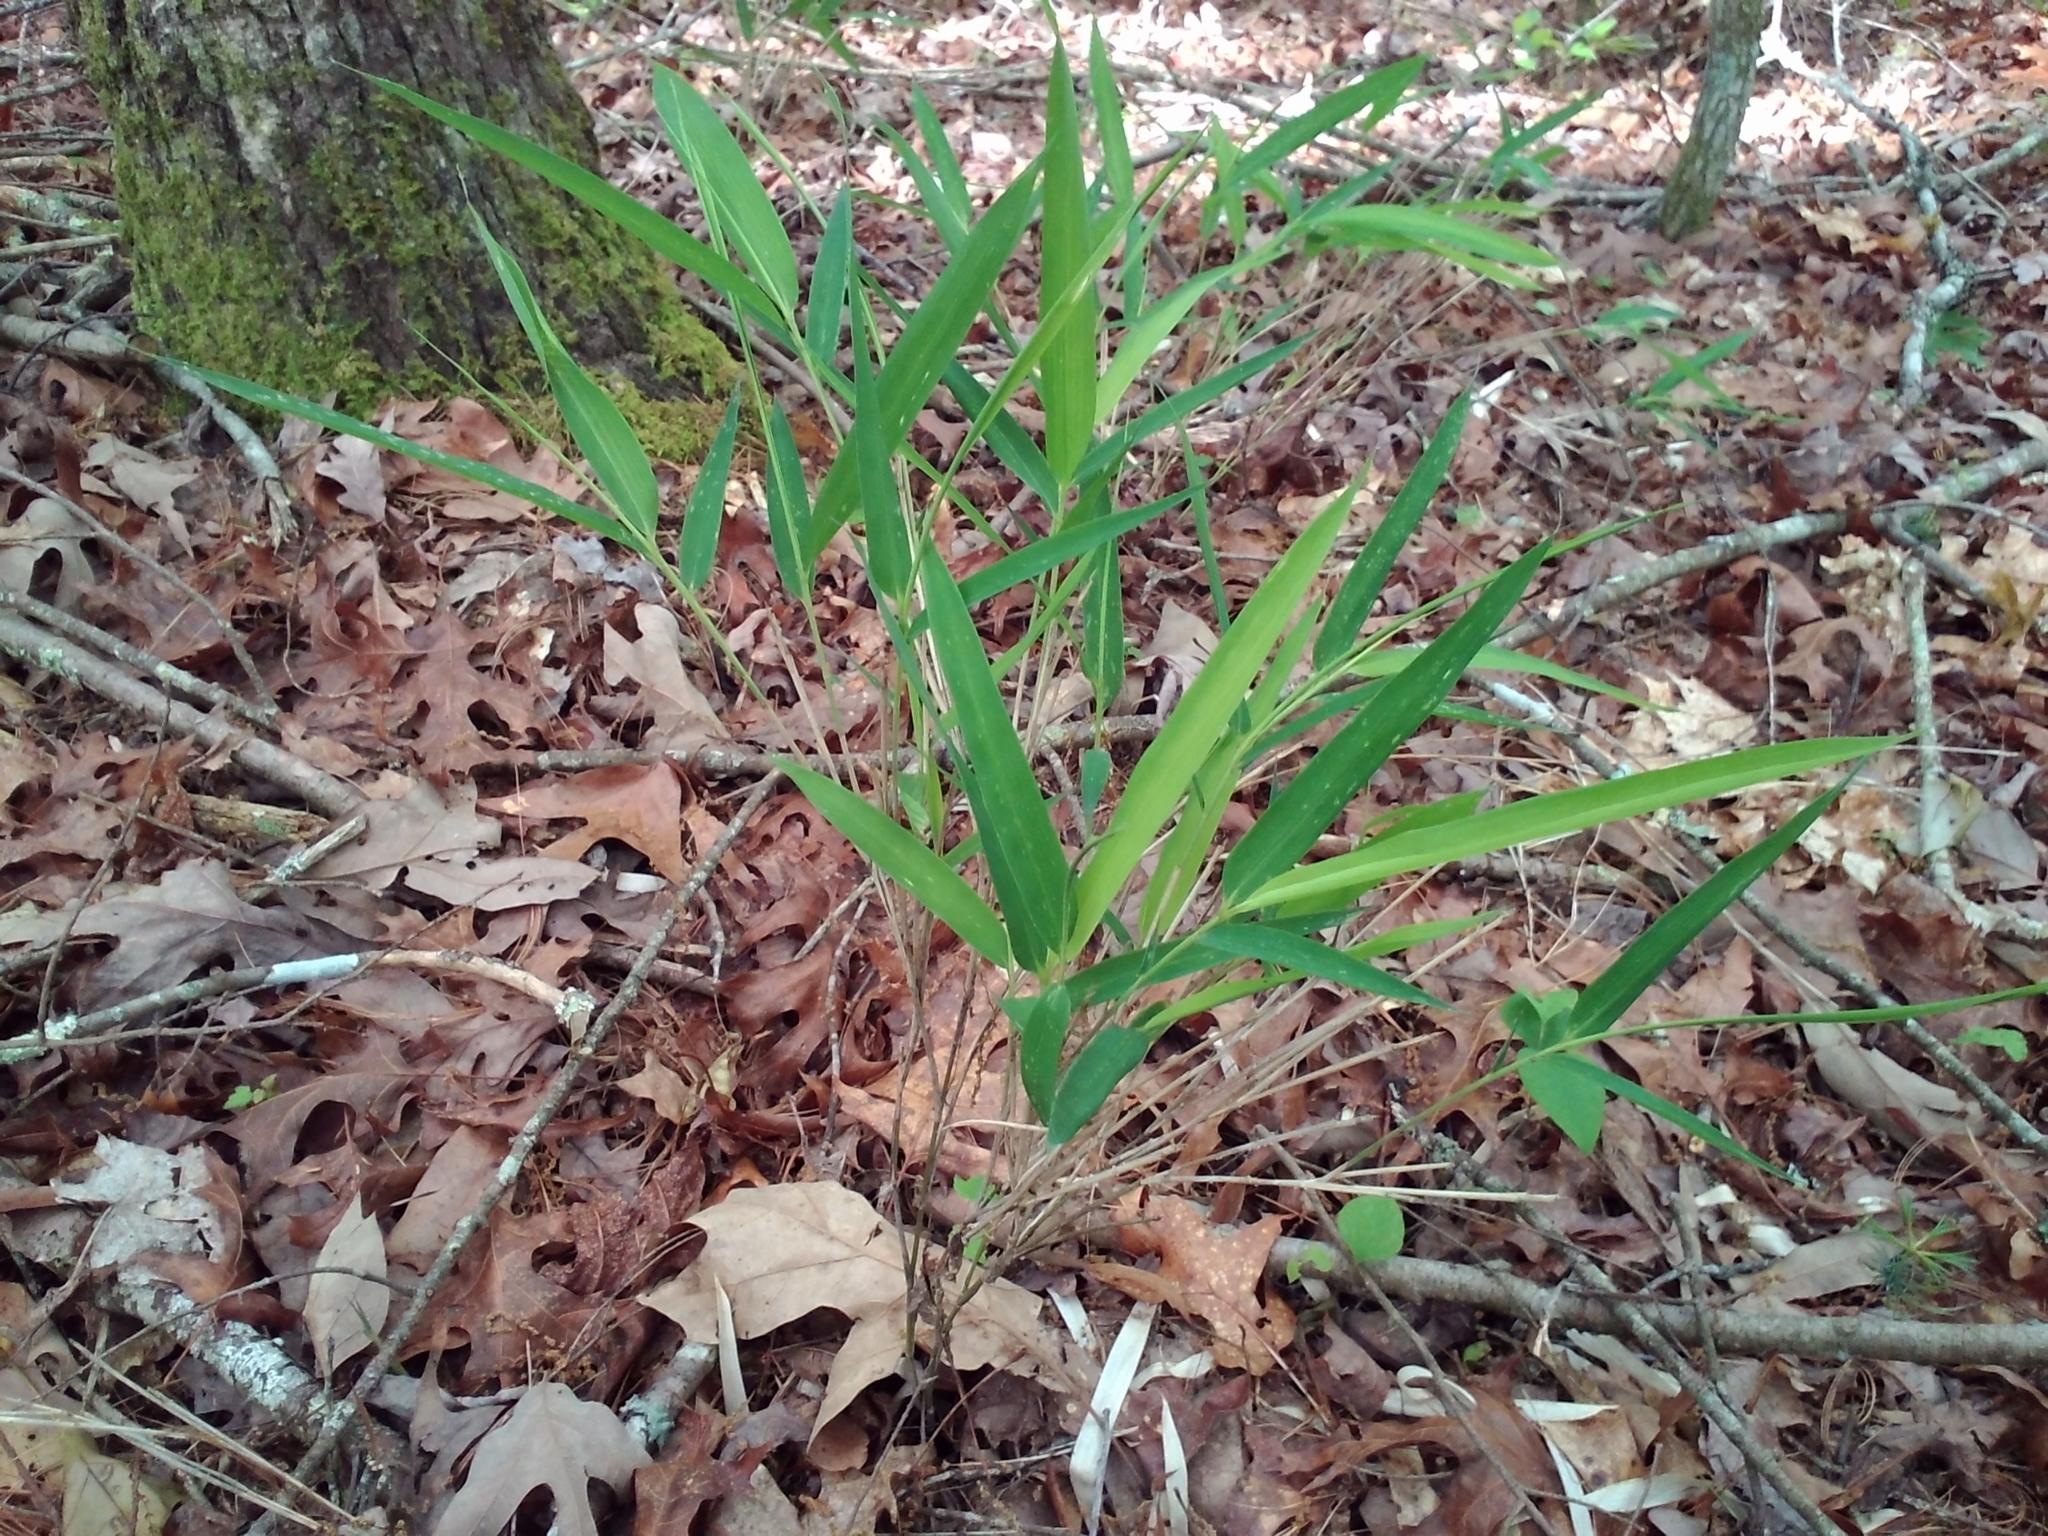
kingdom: Plantae
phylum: Tracheophyta
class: Liliopsida
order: Poales
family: Poaceae
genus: Arundinaria
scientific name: Arundinaria appalachiana
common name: Hill cane
